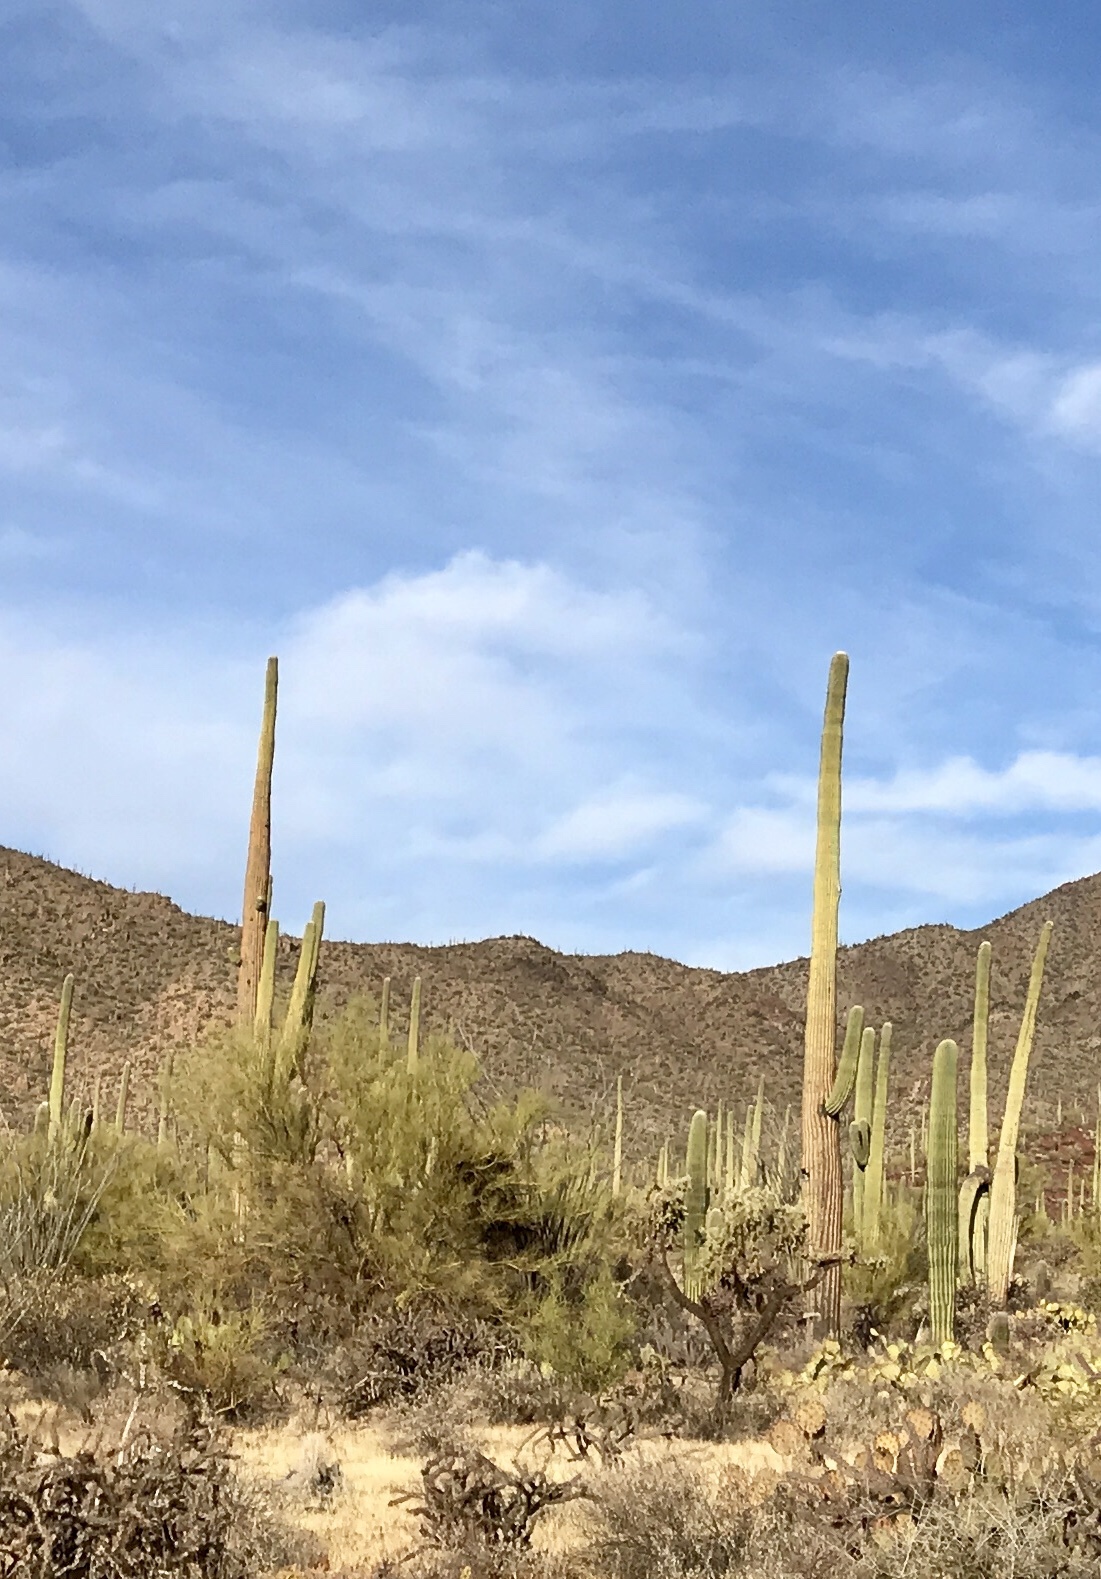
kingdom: Plantae
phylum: Tracheophyta
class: Magnoliopsida
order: Caryophyllales
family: Cactaceae
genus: Carnegiea
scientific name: Carnegiea gigantea
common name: Saguaro
